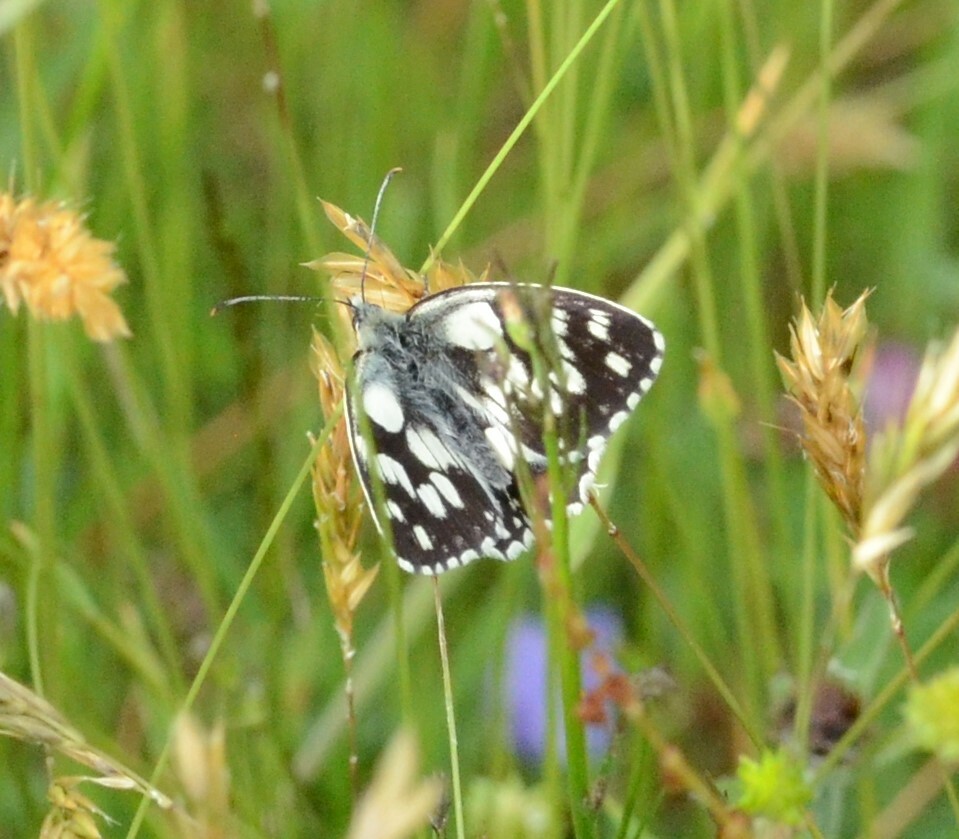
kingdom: Animalia
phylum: Arthropoda
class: Insecta
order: Lepidoptera
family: Nymphalidae
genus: Melanargia
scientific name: Melanargia galathea
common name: Marbled white
